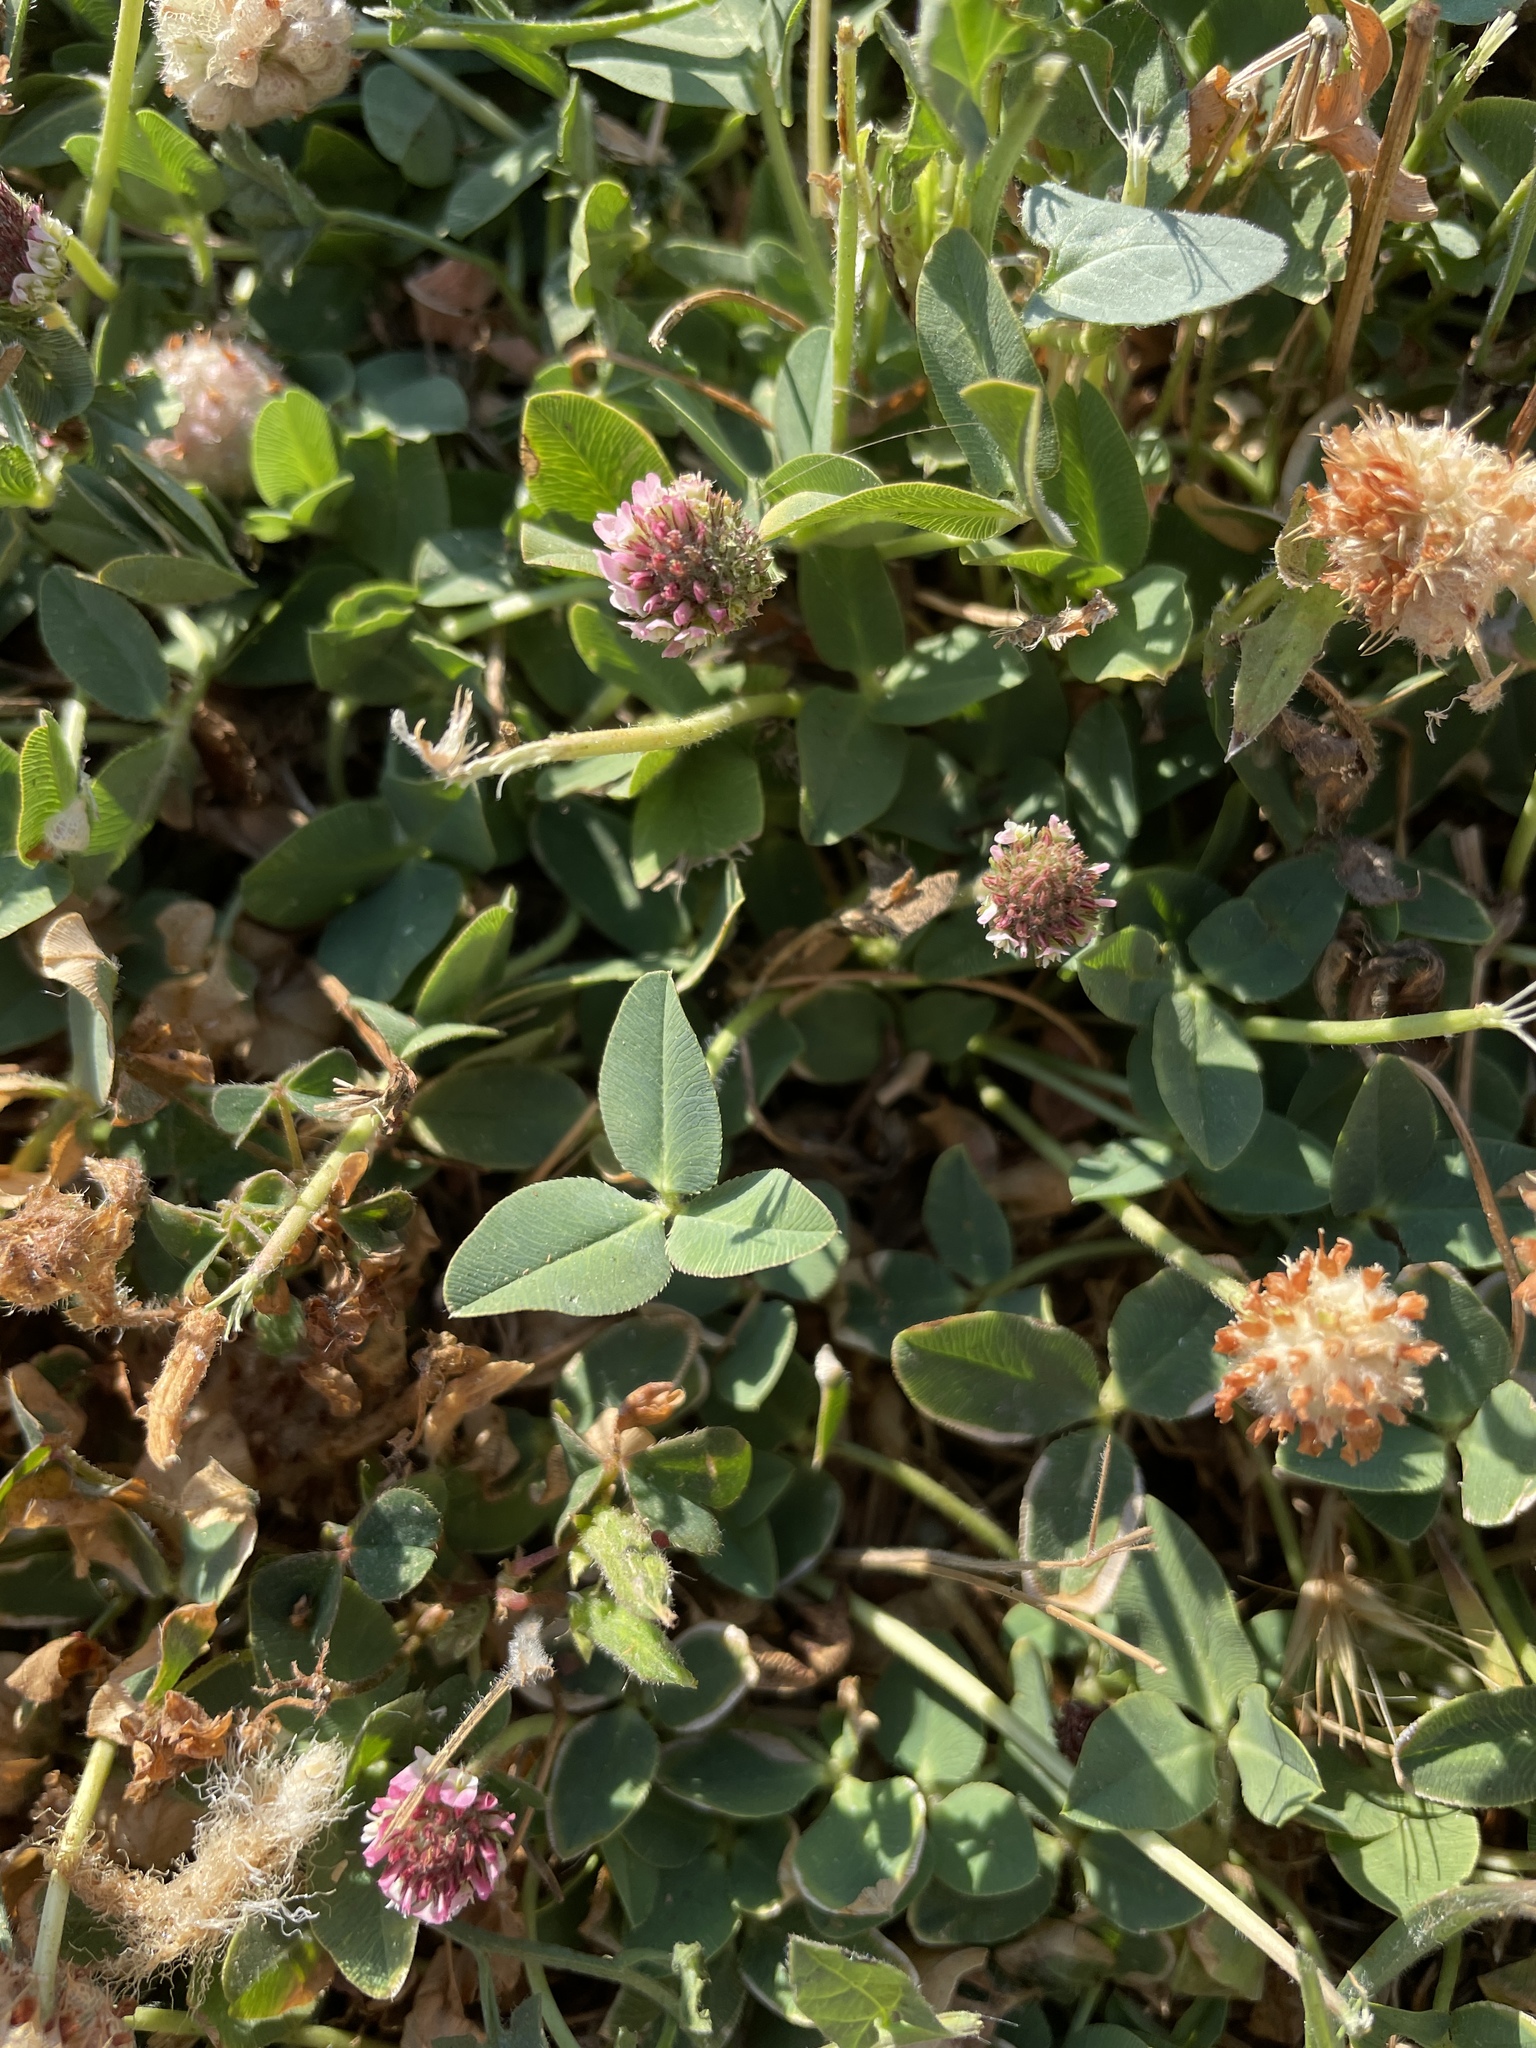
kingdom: Plantae
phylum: Tracheophyta
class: Magnoliopsida
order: Fabales
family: Fabaceae
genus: Trifolium
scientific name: Trifolium fragiferum
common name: Strawberry clover
